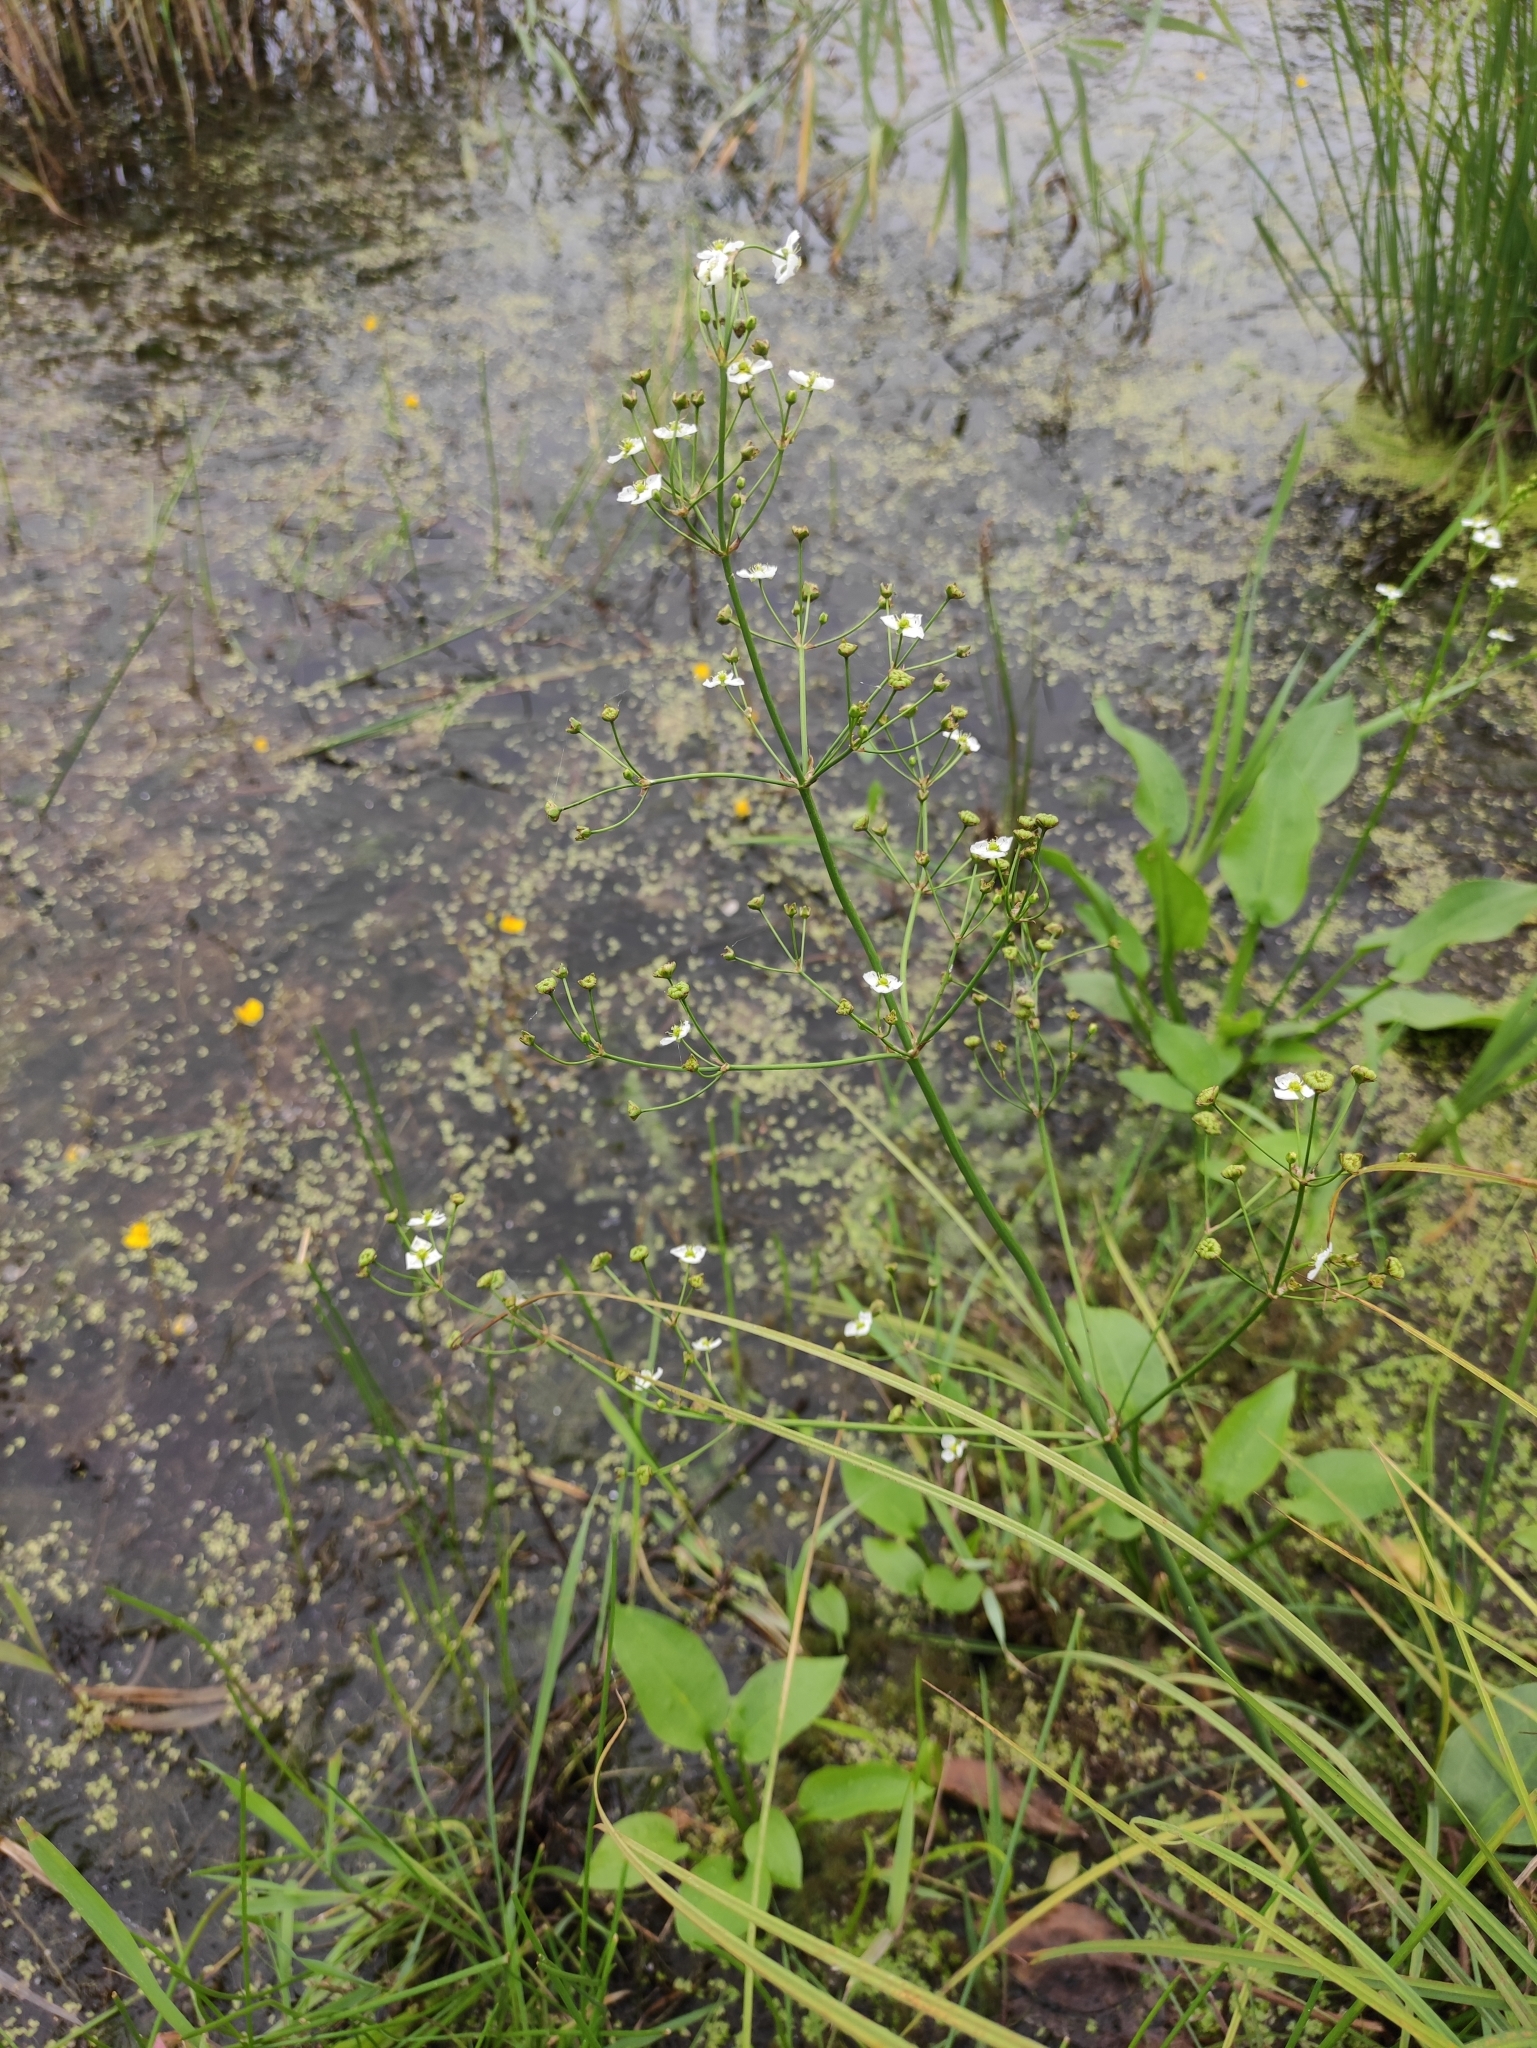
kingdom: Plantae
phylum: Tracheophyta
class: Liliopsida
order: Alismatales
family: Alismataceae
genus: Alisma
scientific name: Alisma plantago-aquatica
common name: Water-plantain
